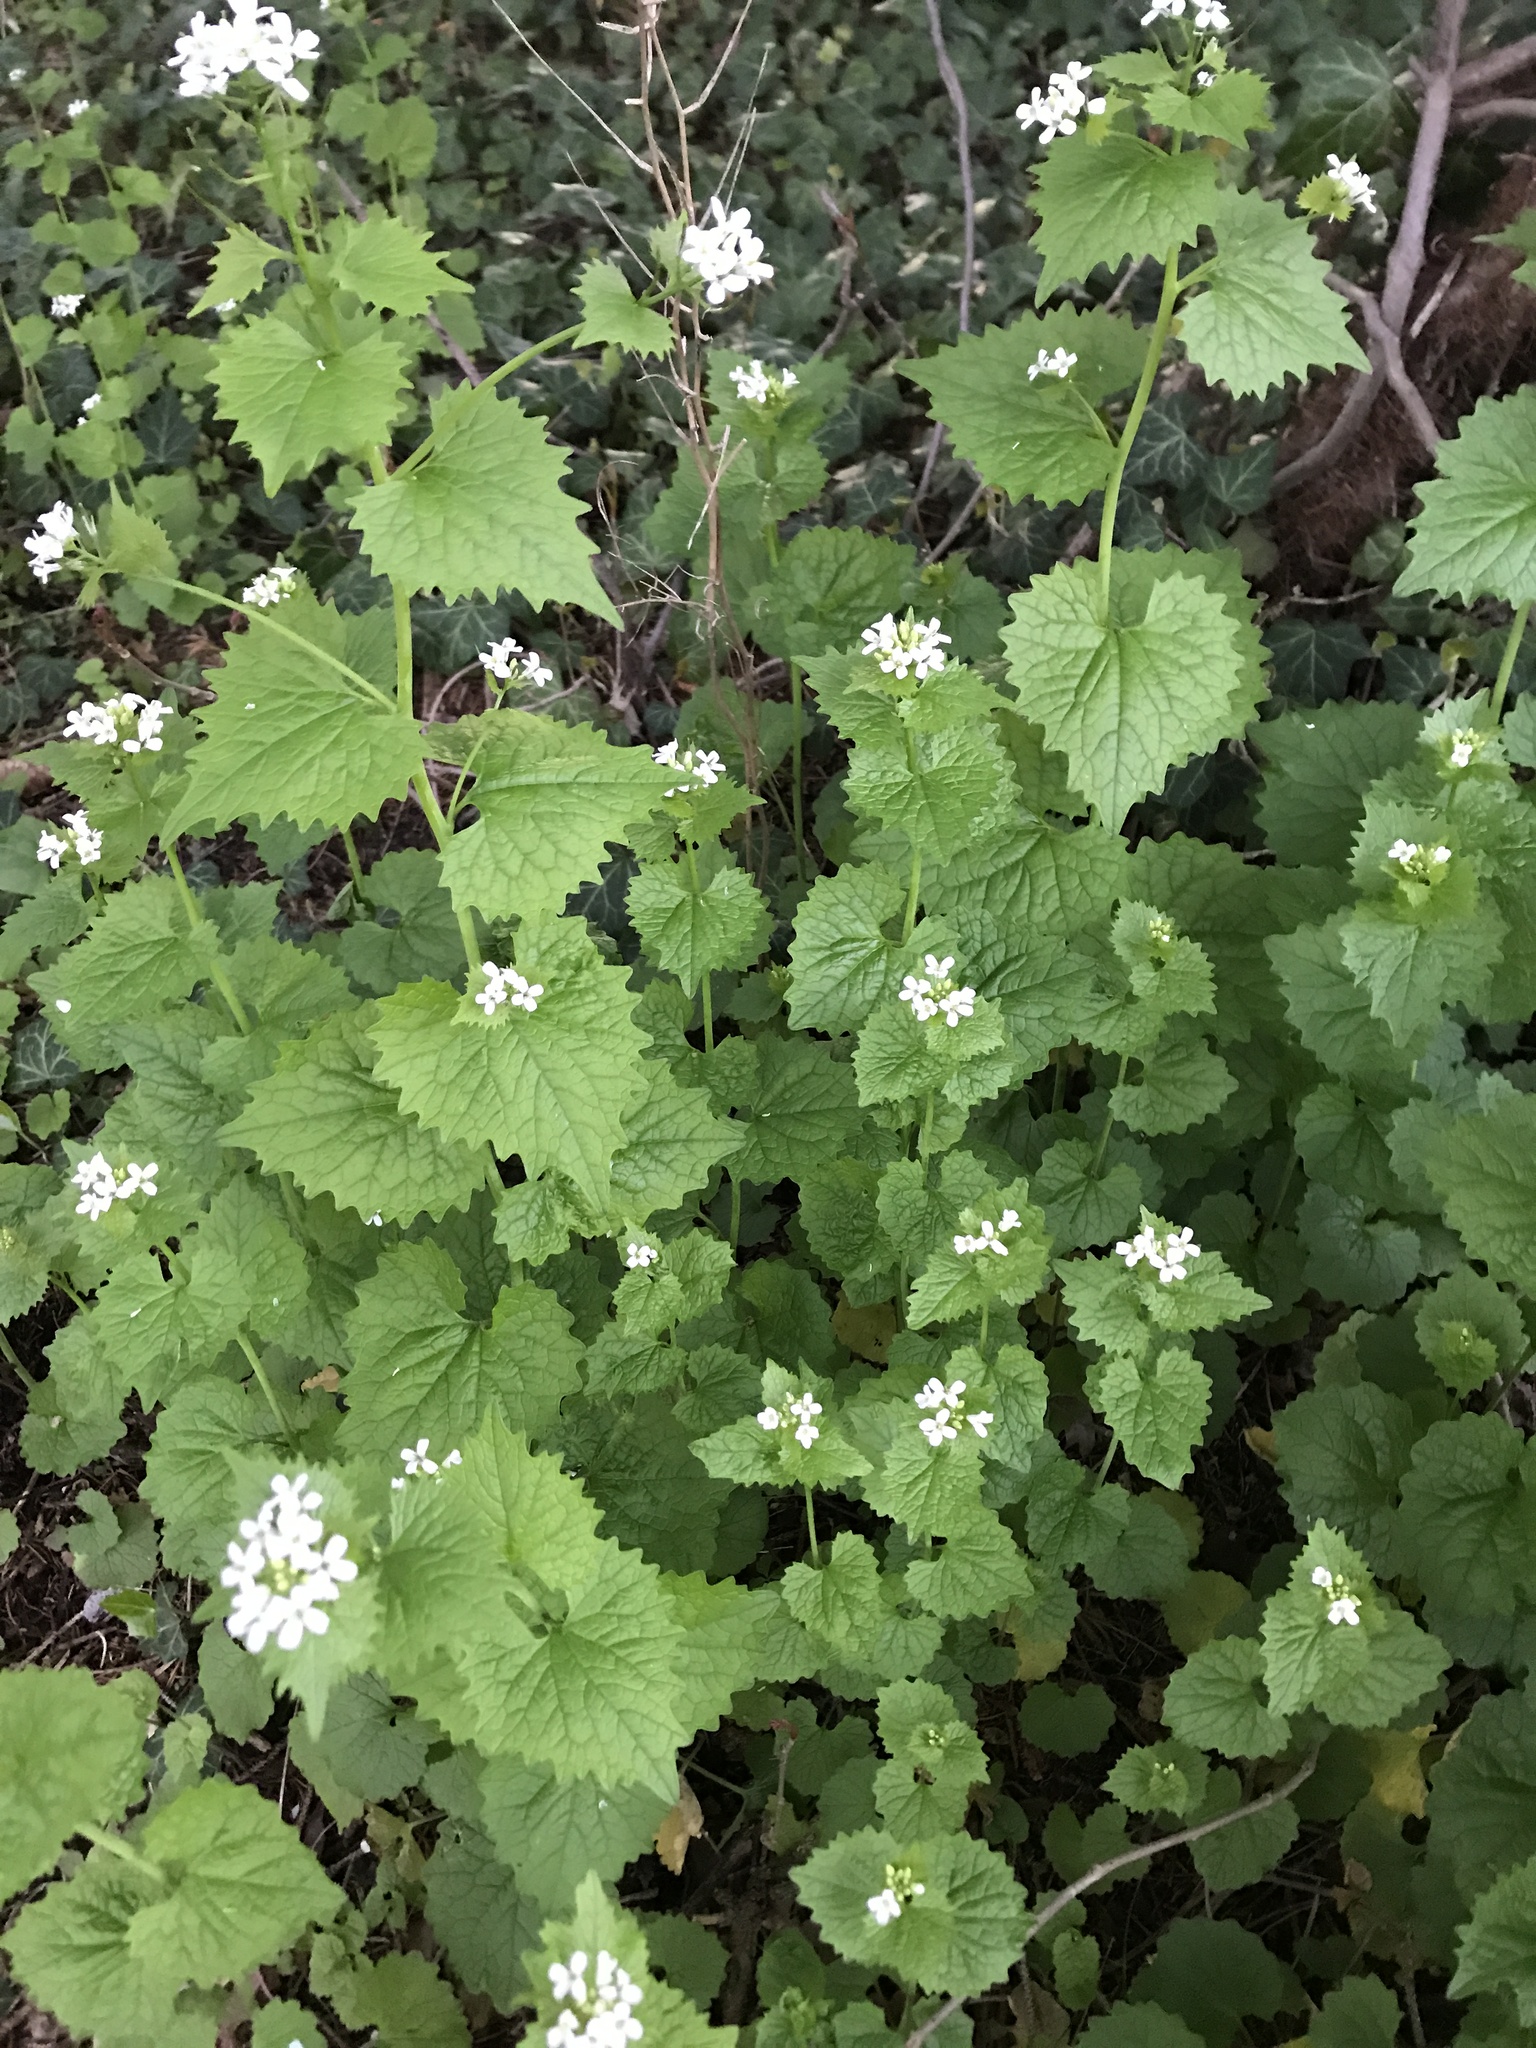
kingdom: Plantae
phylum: Tracheophyta
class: Magnoliopsida
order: Brassicales
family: Brassicaceae
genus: Alliaria
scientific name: Alliaria petiolata
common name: Garlic mustard
